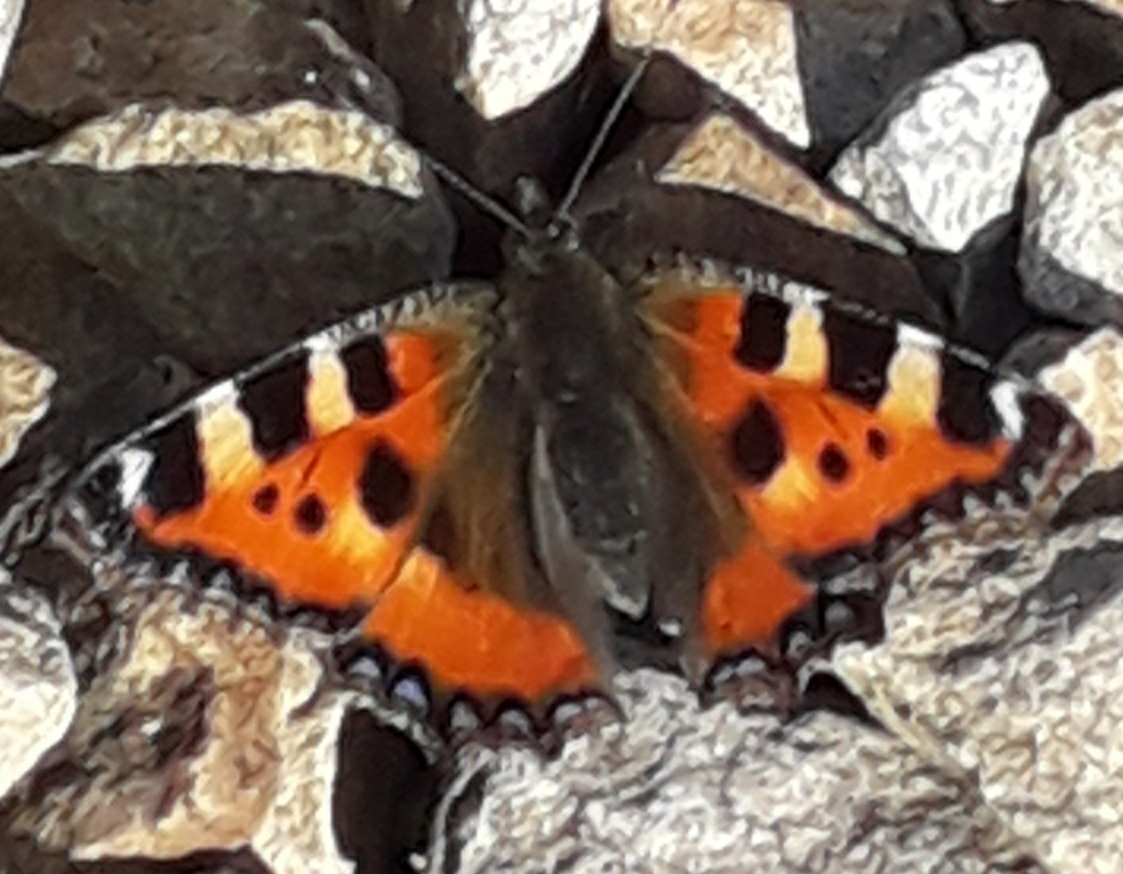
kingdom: Animalia
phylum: Arthropoda
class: Insecta
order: Lepidoptera
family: Nymphalidae
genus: Aglais
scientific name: Aglais urticae
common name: Small tortoiseshell
